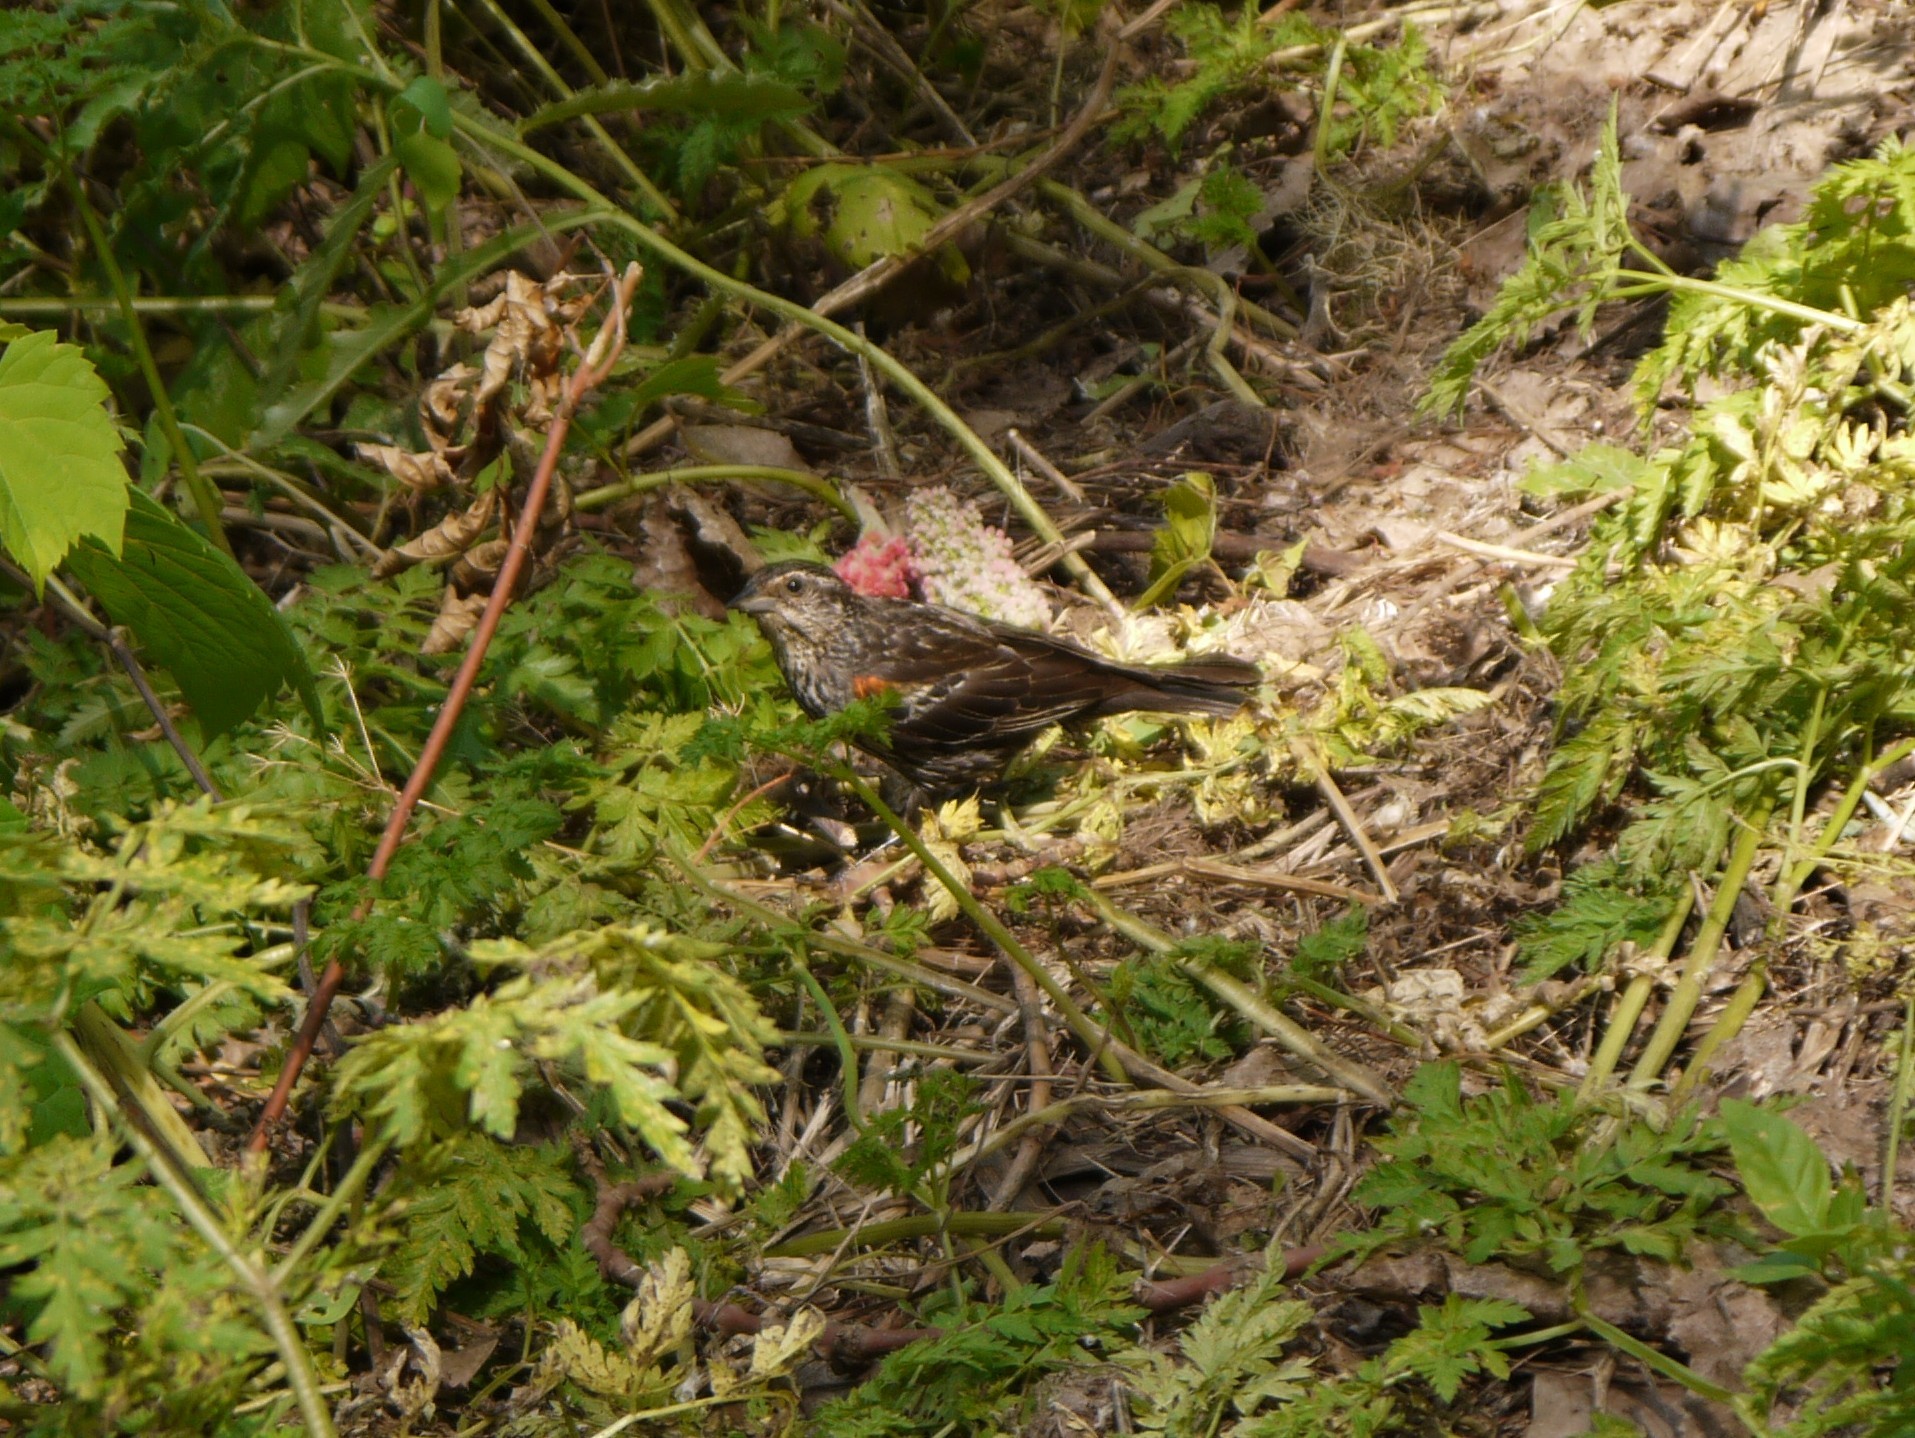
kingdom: Animalia
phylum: Chordata
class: Aves
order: Passeriformes
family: Icteridae
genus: Agelaius
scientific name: Agelaius phoeniceus
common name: Red-winged blackbird
